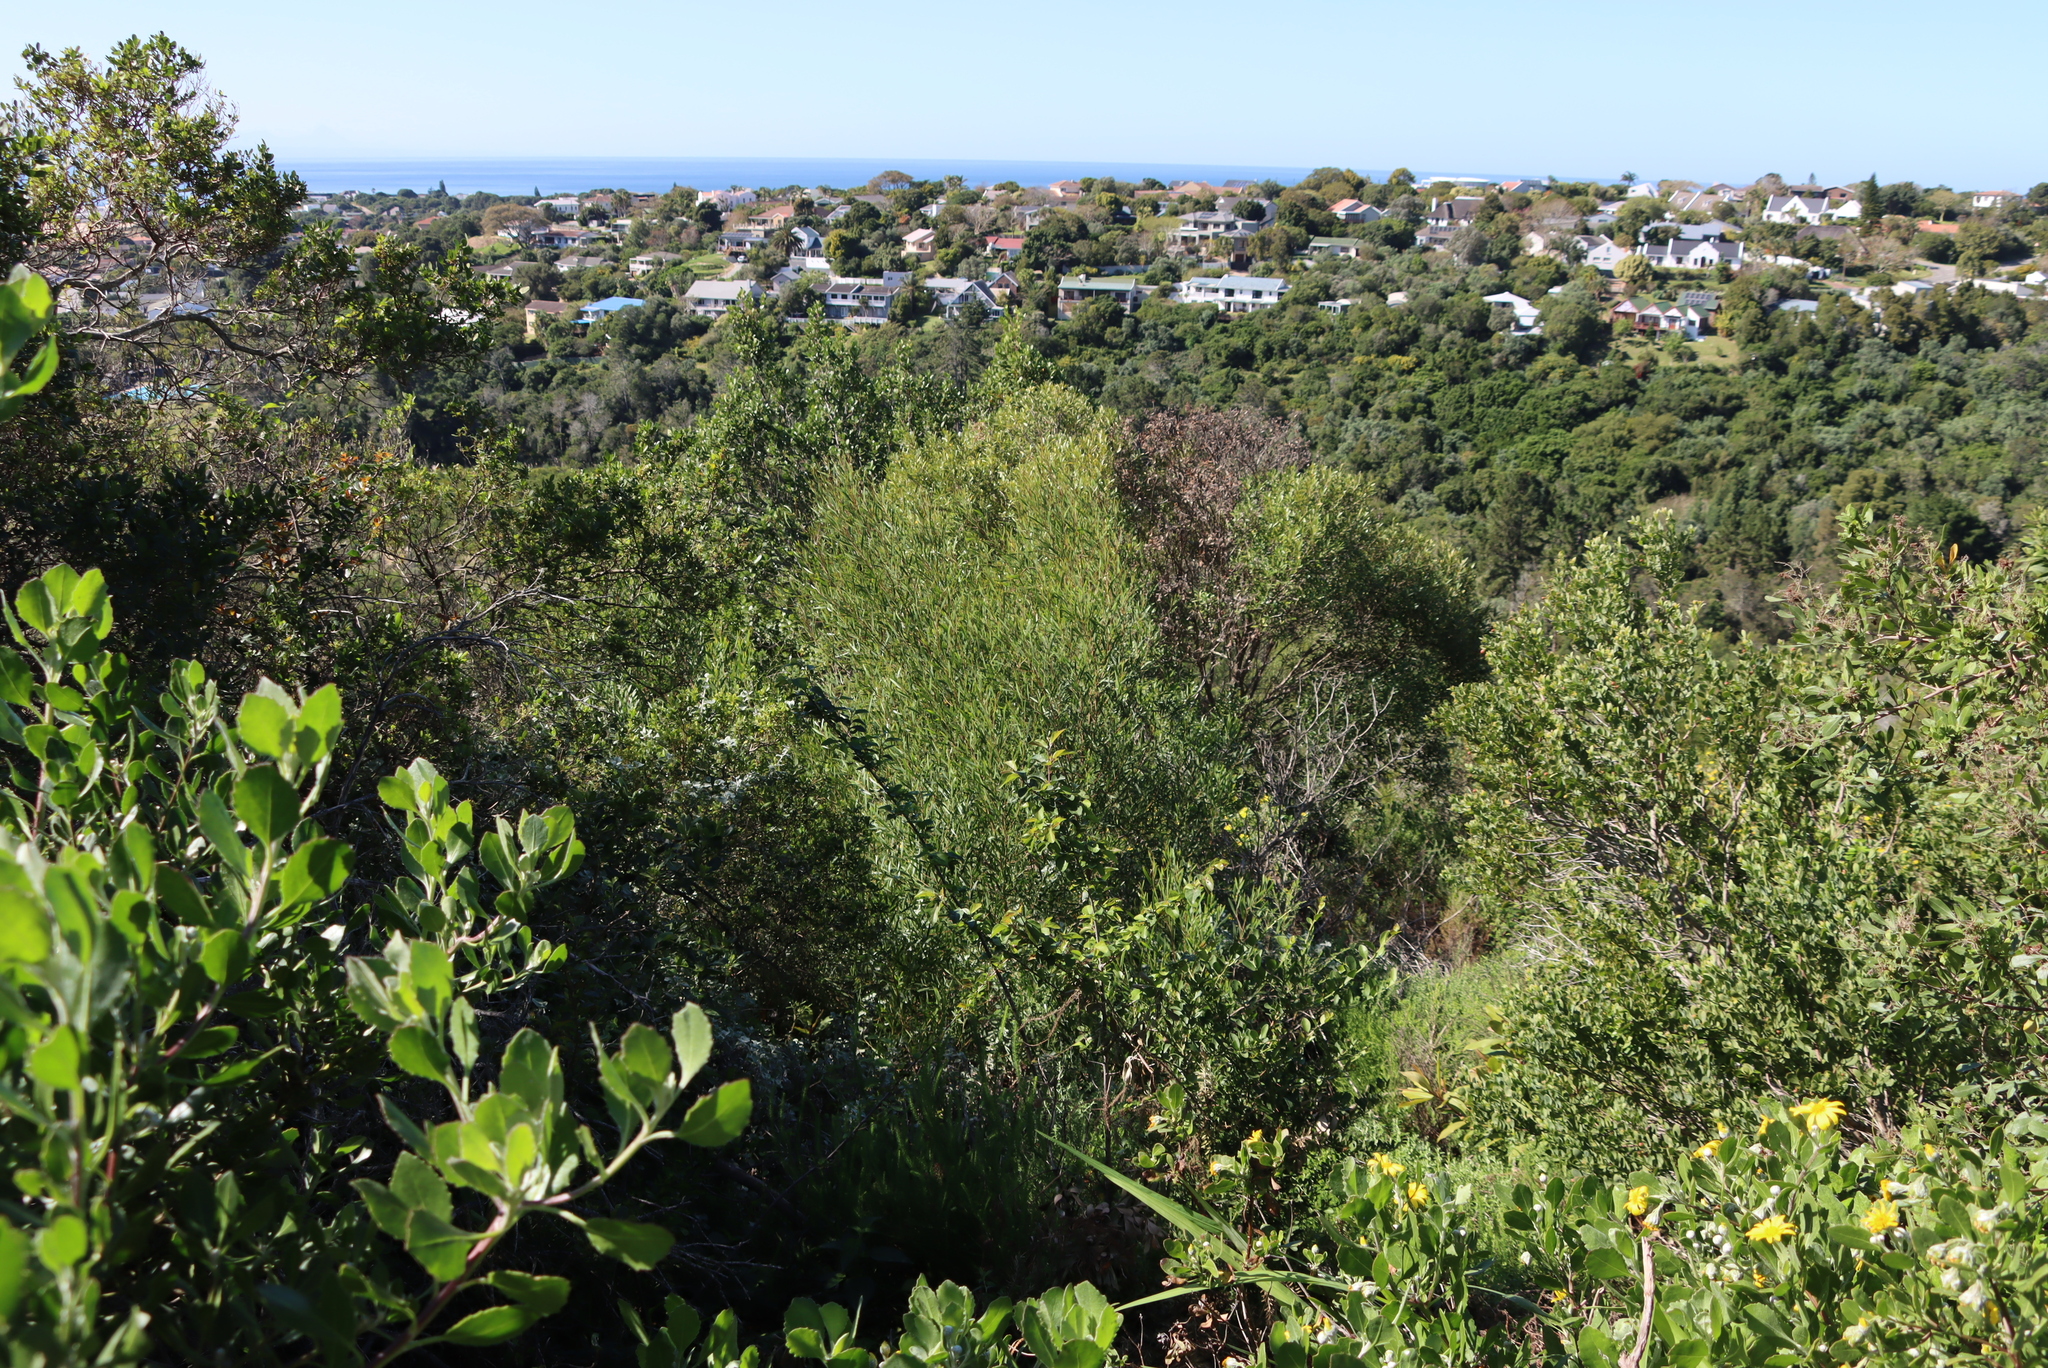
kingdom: Plantae
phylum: Tracheophyta
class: Magnoliopsida
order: Fabales
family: Fabaceae
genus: Acacia
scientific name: Acacia cyclops
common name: Coastal wattle
